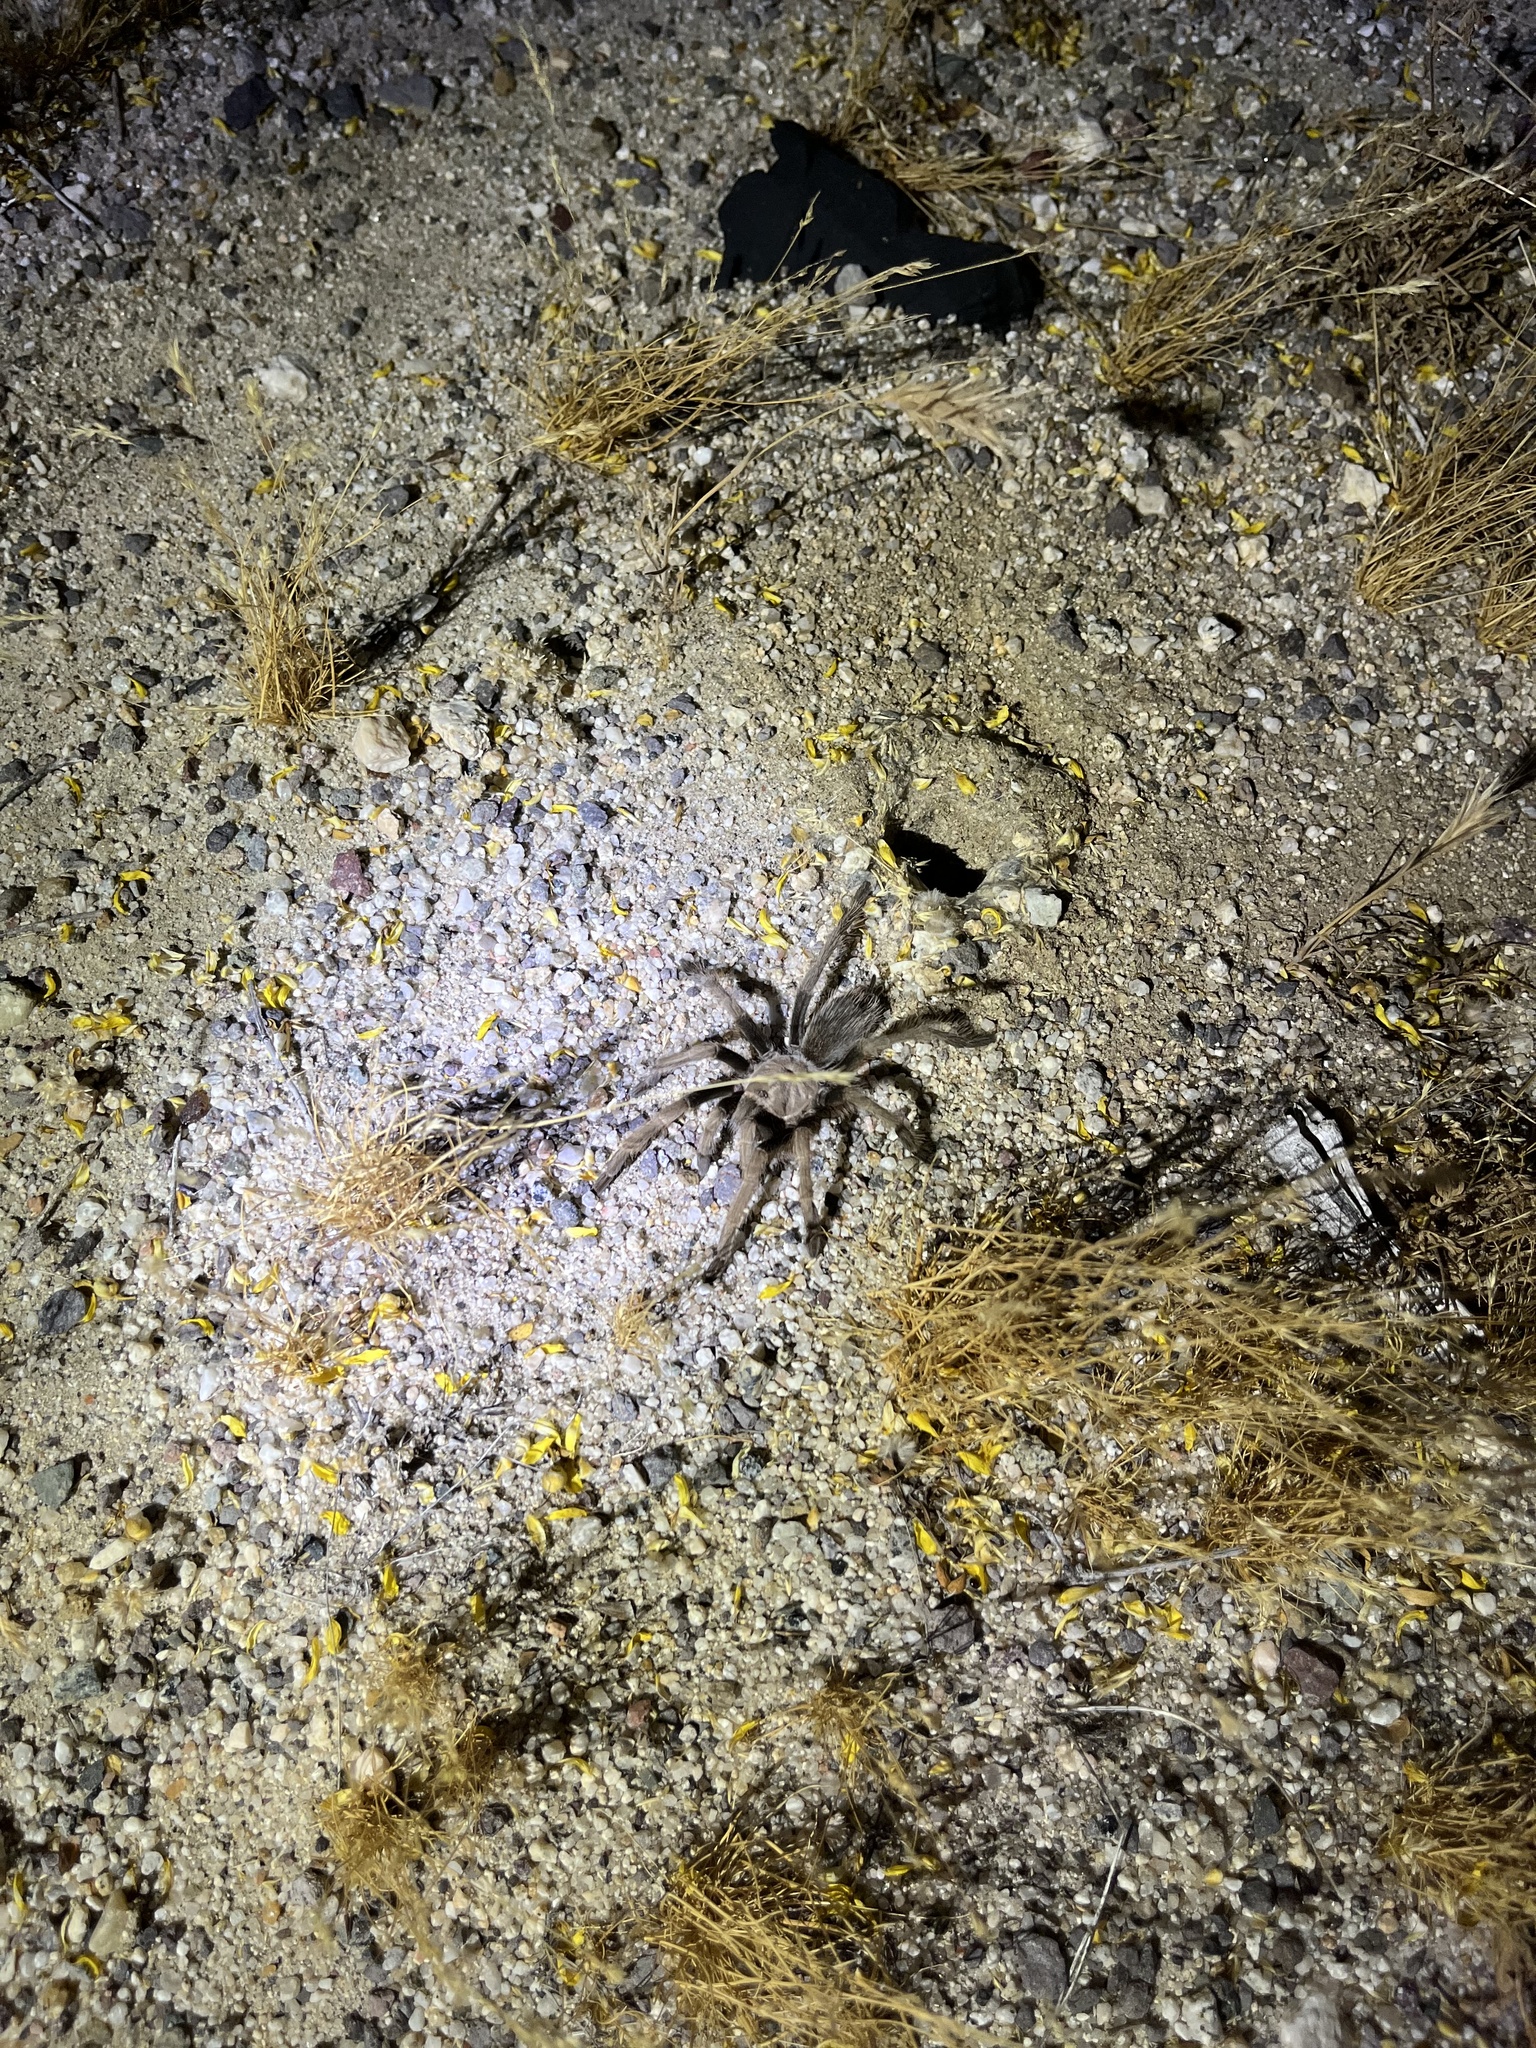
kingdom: Animalia
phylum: Arthropoda
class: Arachnida
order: Araneae
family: Theraphosidae
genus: Aphonopelma
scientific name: Aphonopelma eutylenum
